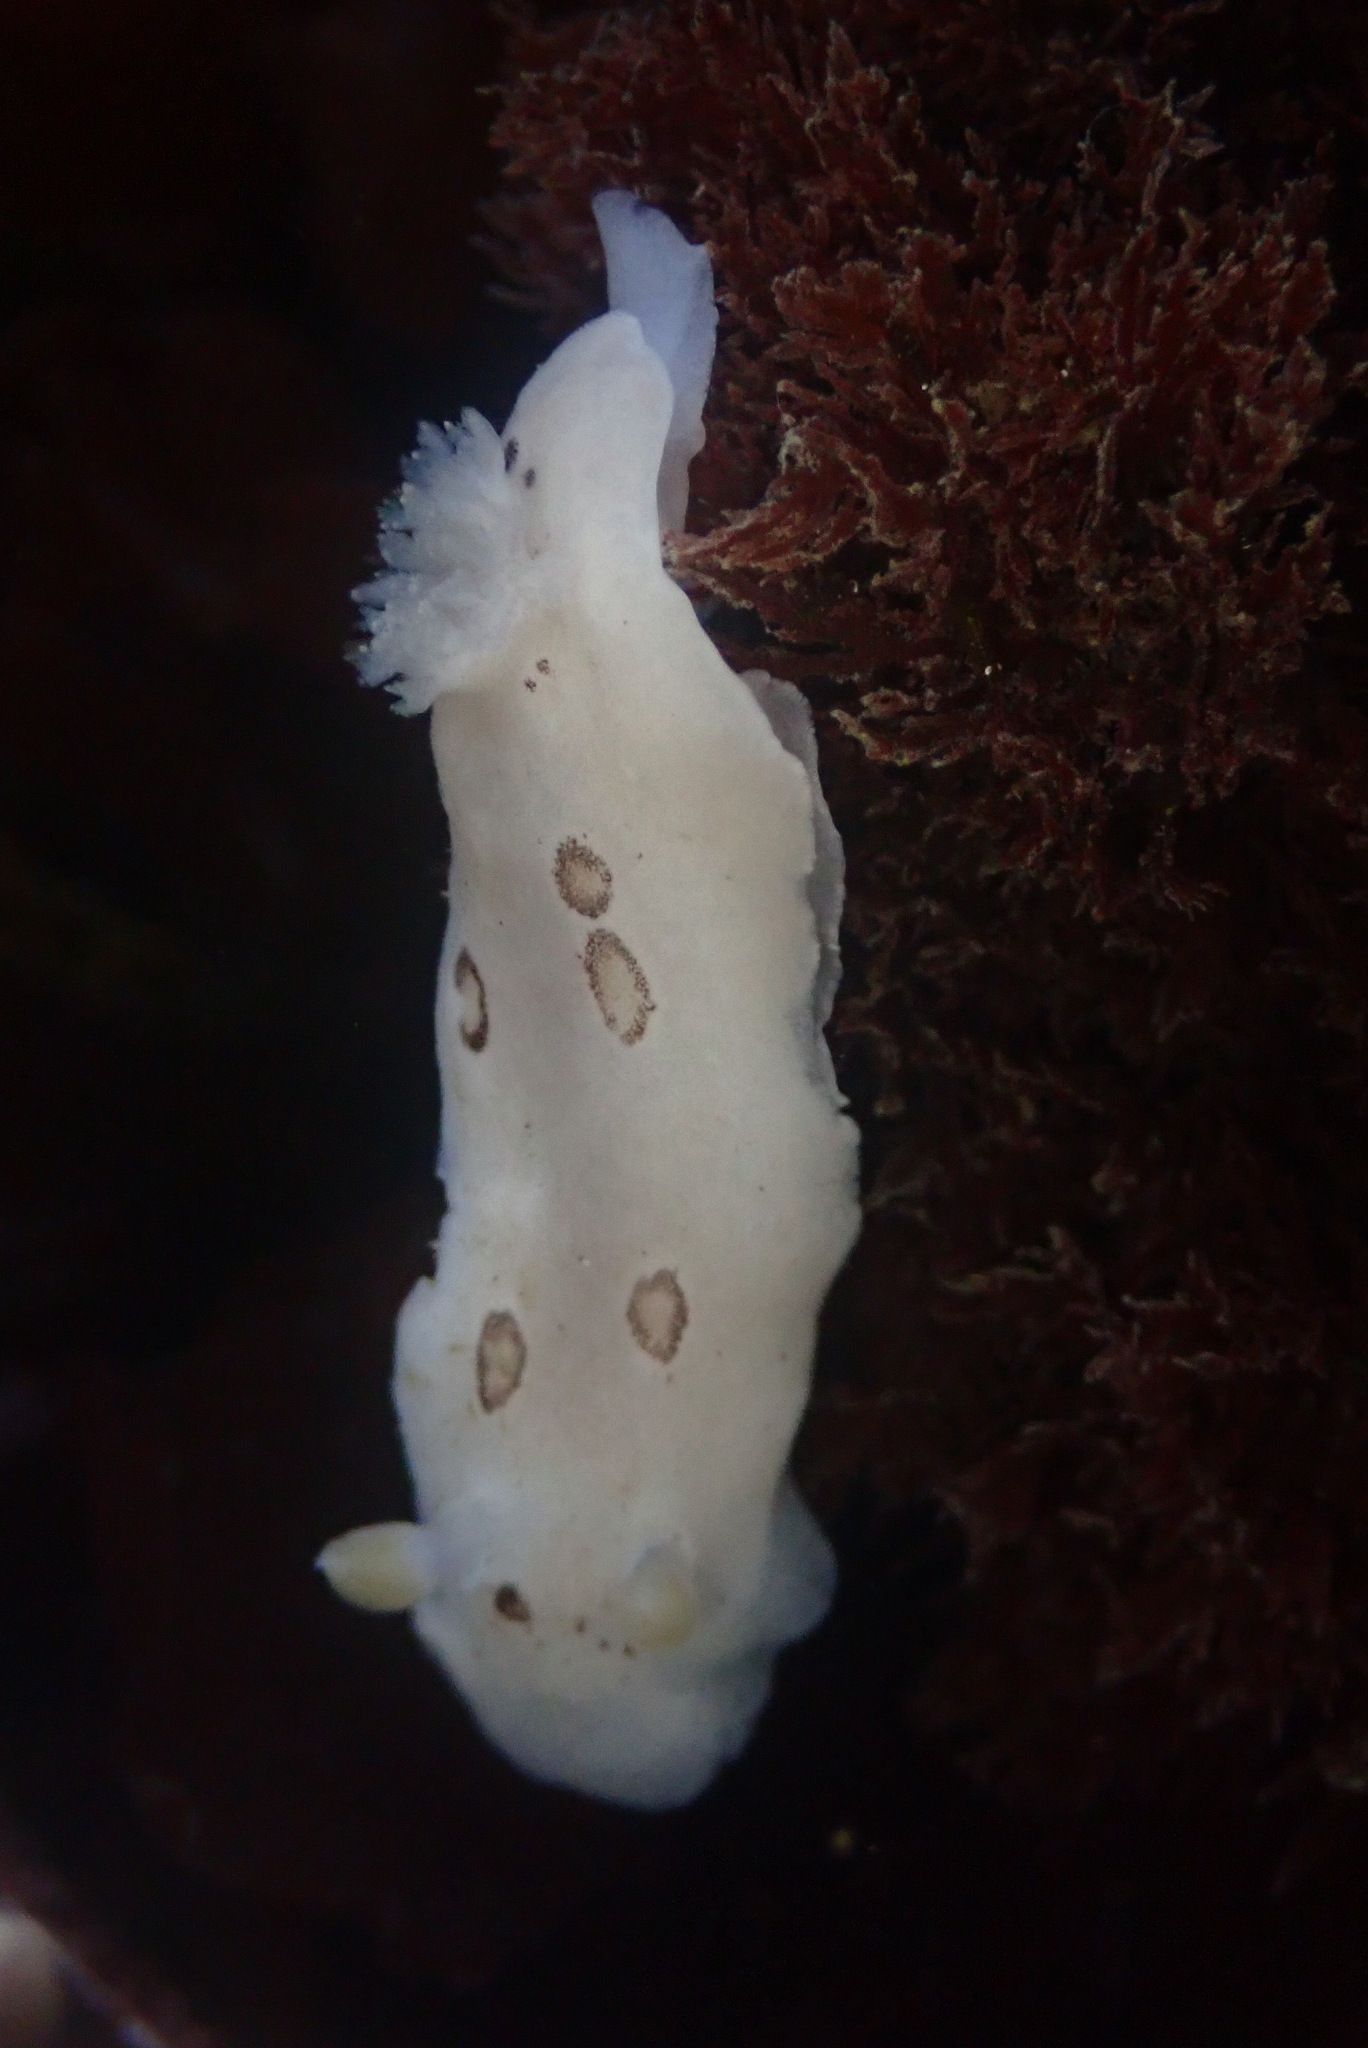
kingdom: Animalia
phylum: Mollusca
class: Gastropoda
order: Nudibranchia
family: Discodorididae
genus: Diaulula
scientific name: Diaulula sandiegensis
